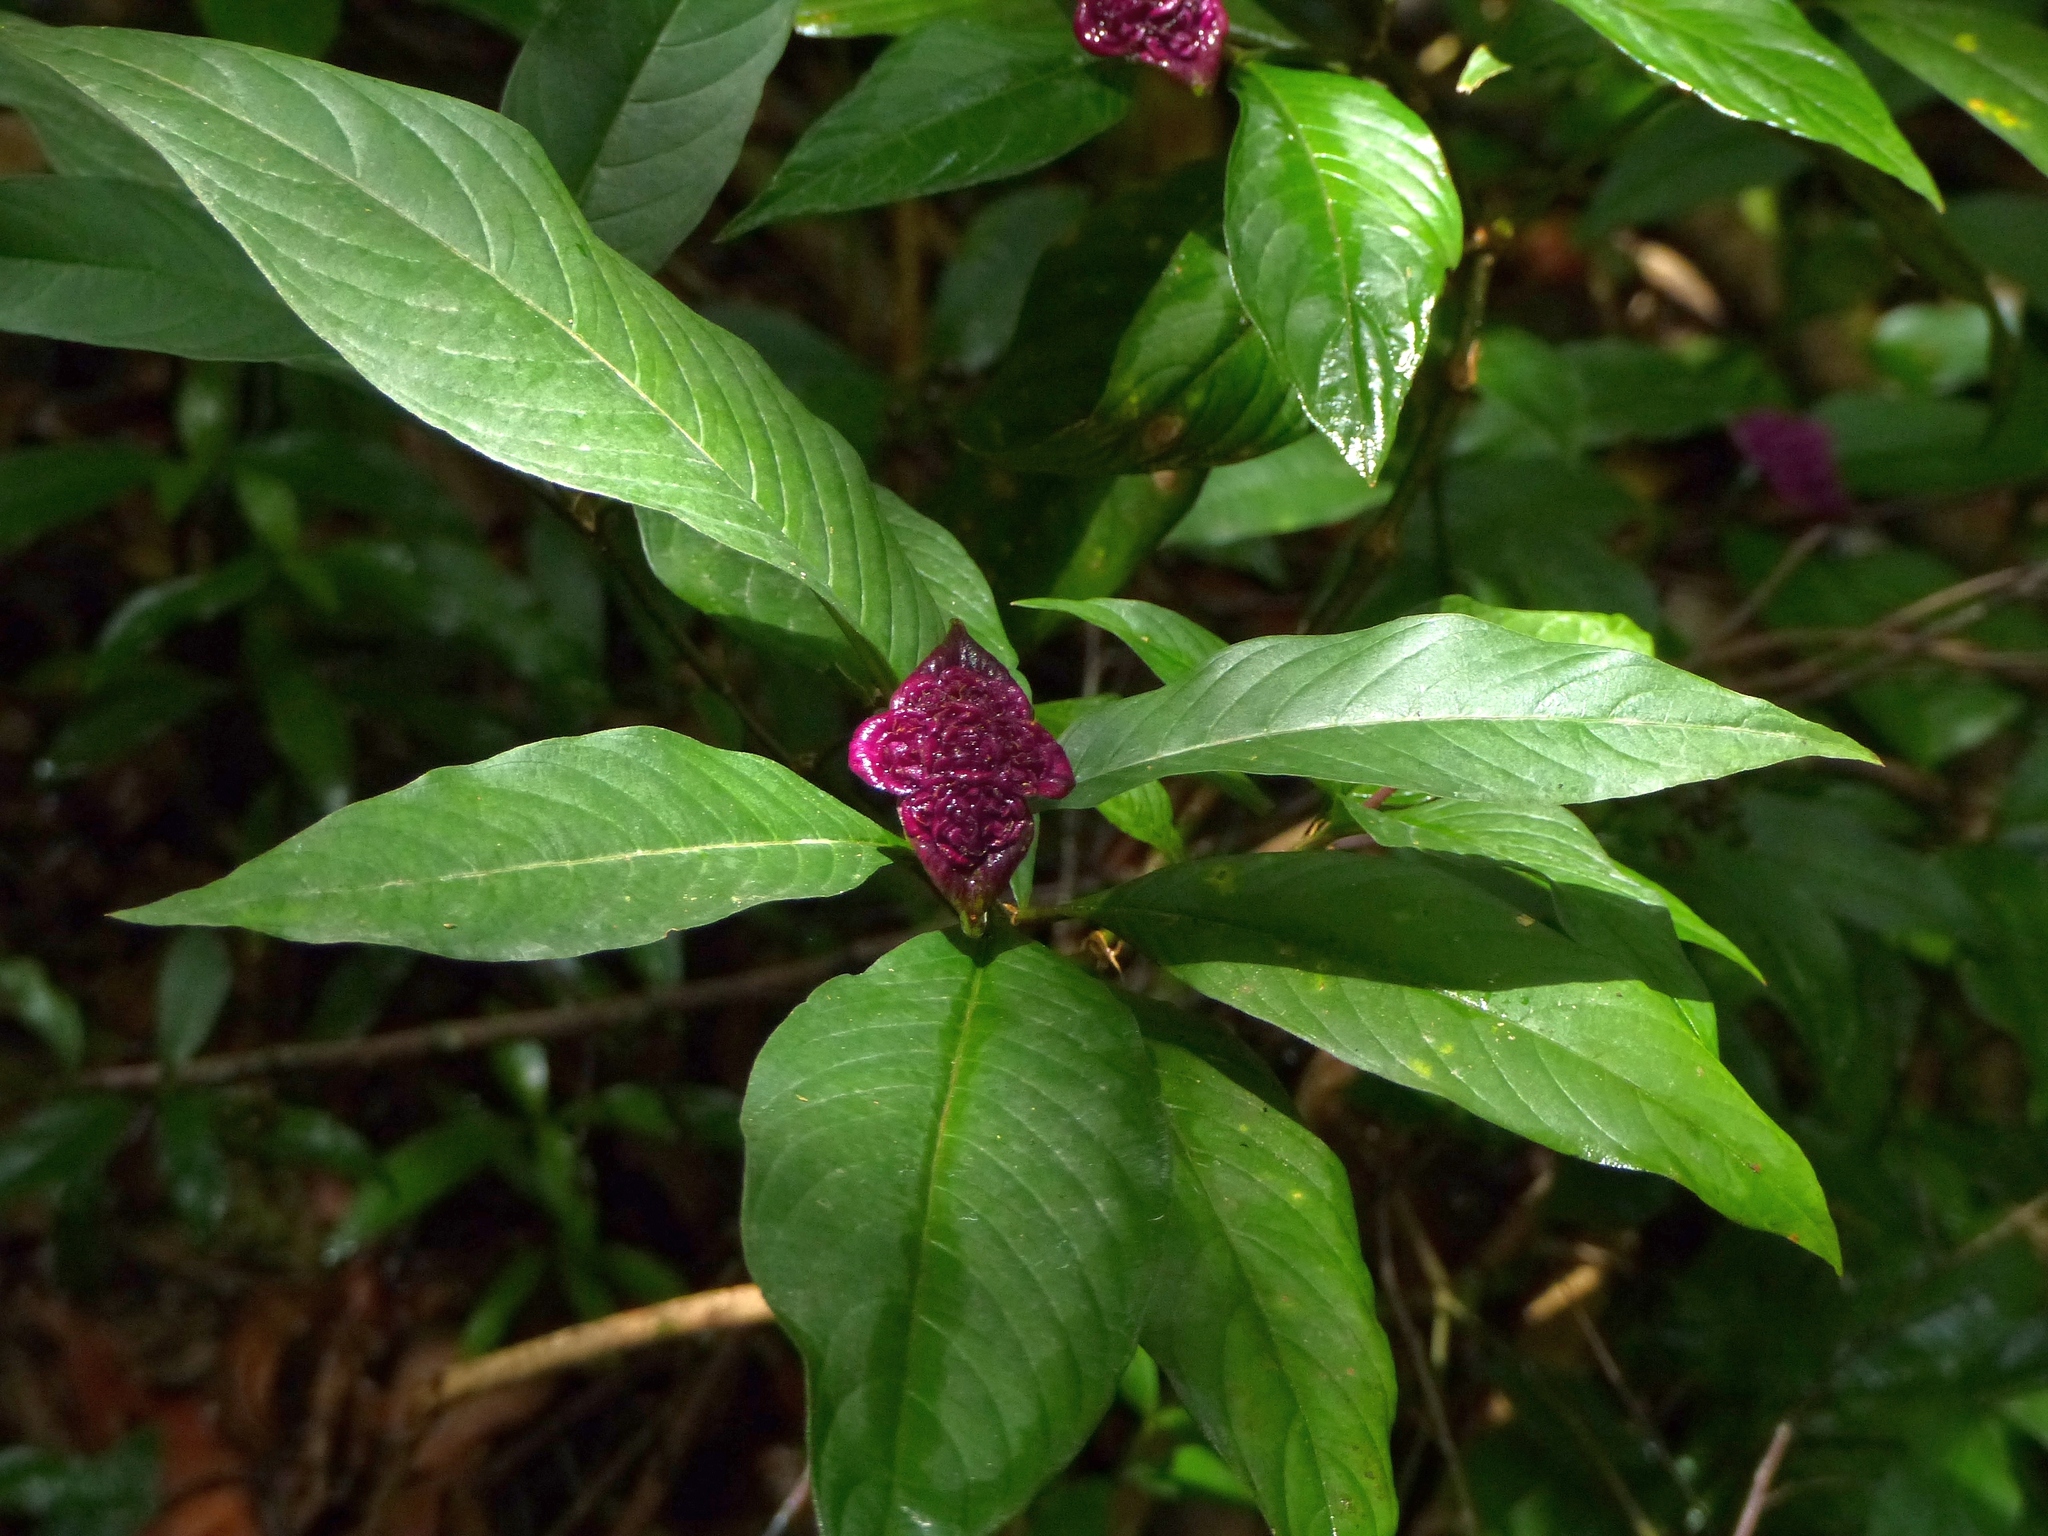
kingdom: Plantae
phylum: Tracheophyta
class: Magnoliopsida
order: Gentianales
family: Rubiaceae
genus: Palicourea
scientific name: Palicourea colorata
